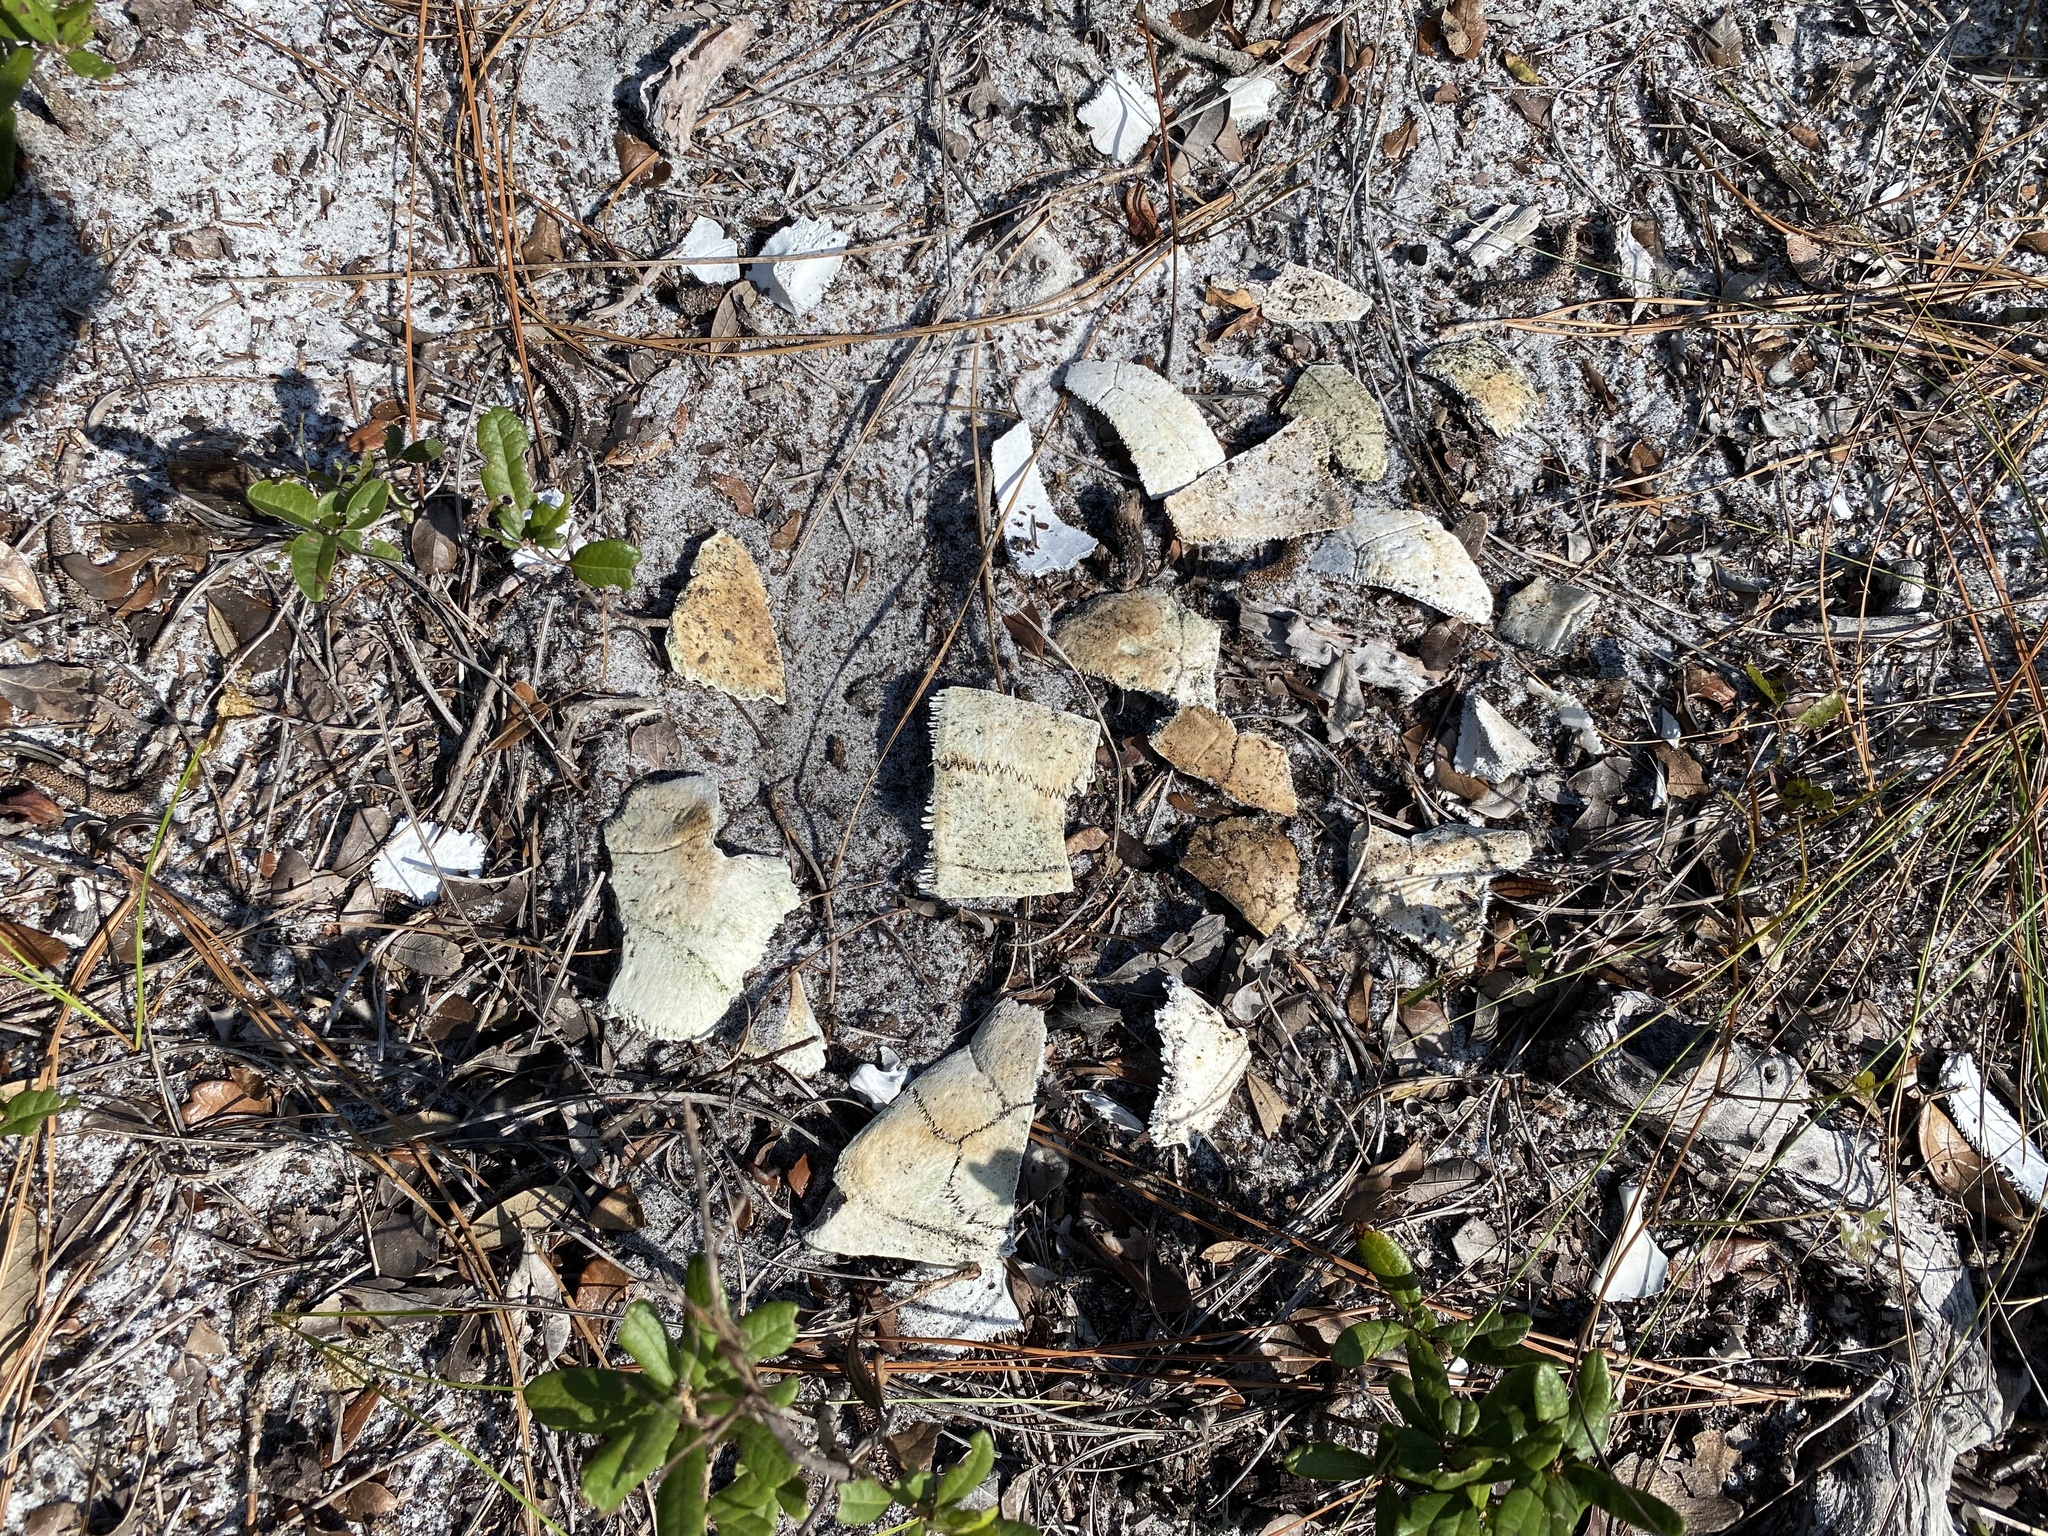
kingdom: Animalia
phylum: Chordata
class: Testudines
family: Testudinidae
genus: Gopherus
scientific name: Gopherus polyphemus
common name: Florida gopher tortoise
